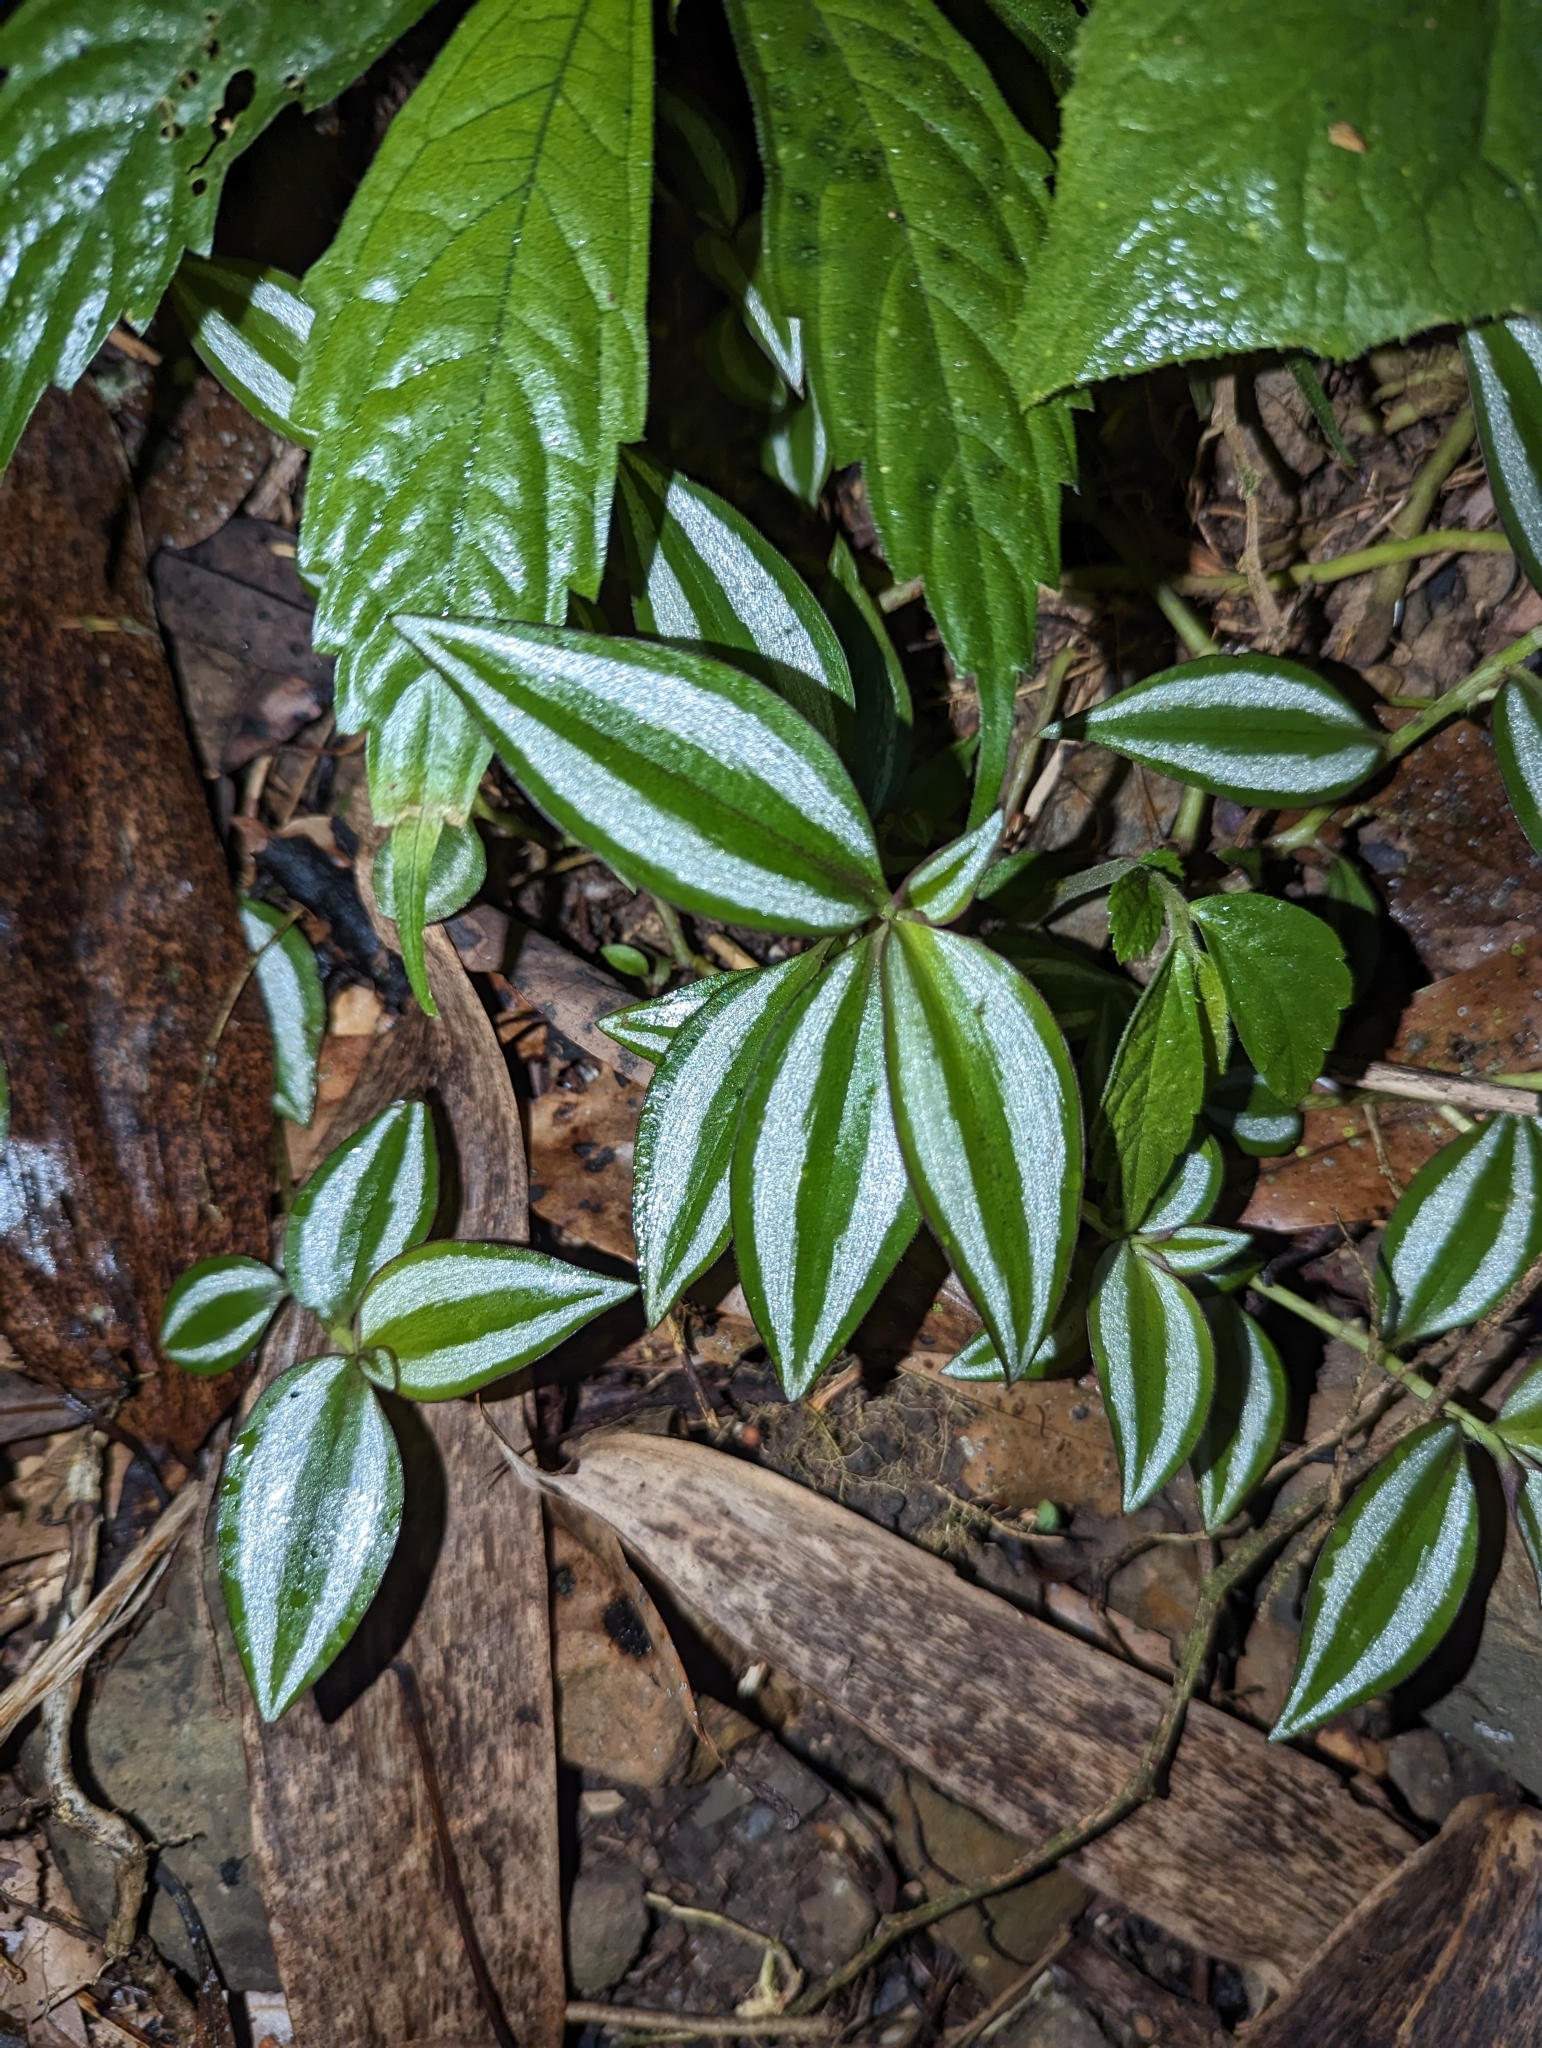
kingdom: Plantae
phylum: Tracheophyta
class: Liliopsida
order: Commelinales
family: Commelinaceae
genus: Tradescantia
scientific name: Tradescantia zebrina
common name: Inchplant
